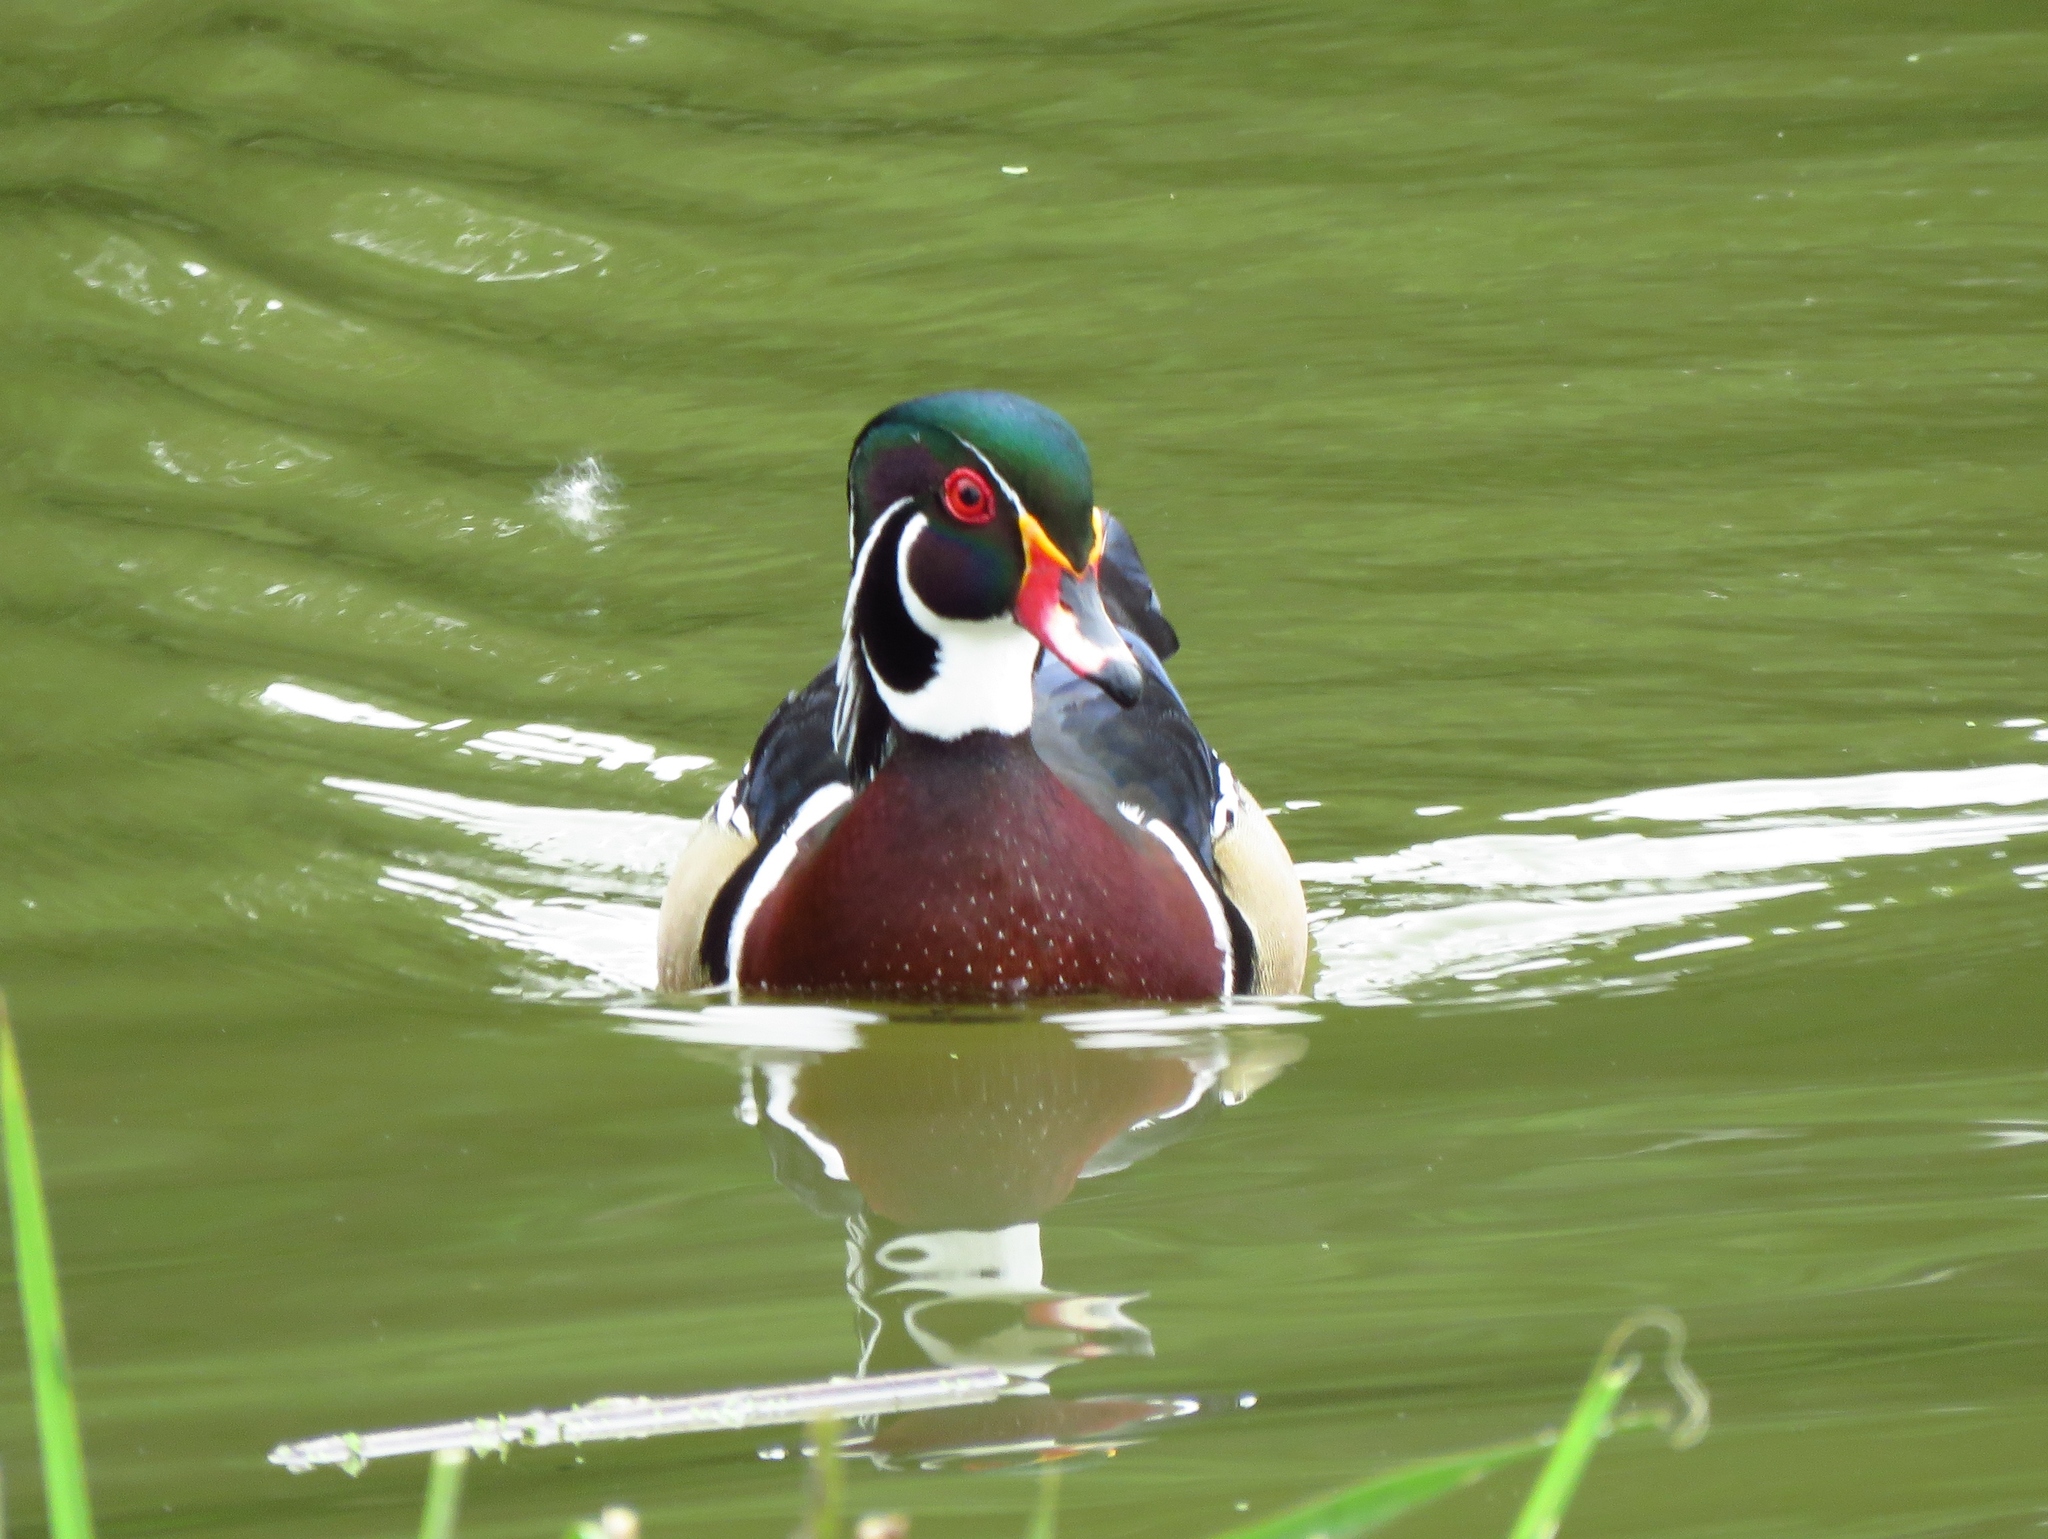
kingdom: Animalia
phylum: Chordata
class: Aves
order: Anseriformes
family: Anatidae
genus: Aix
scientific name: Aix sponsa
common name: Wood duck
